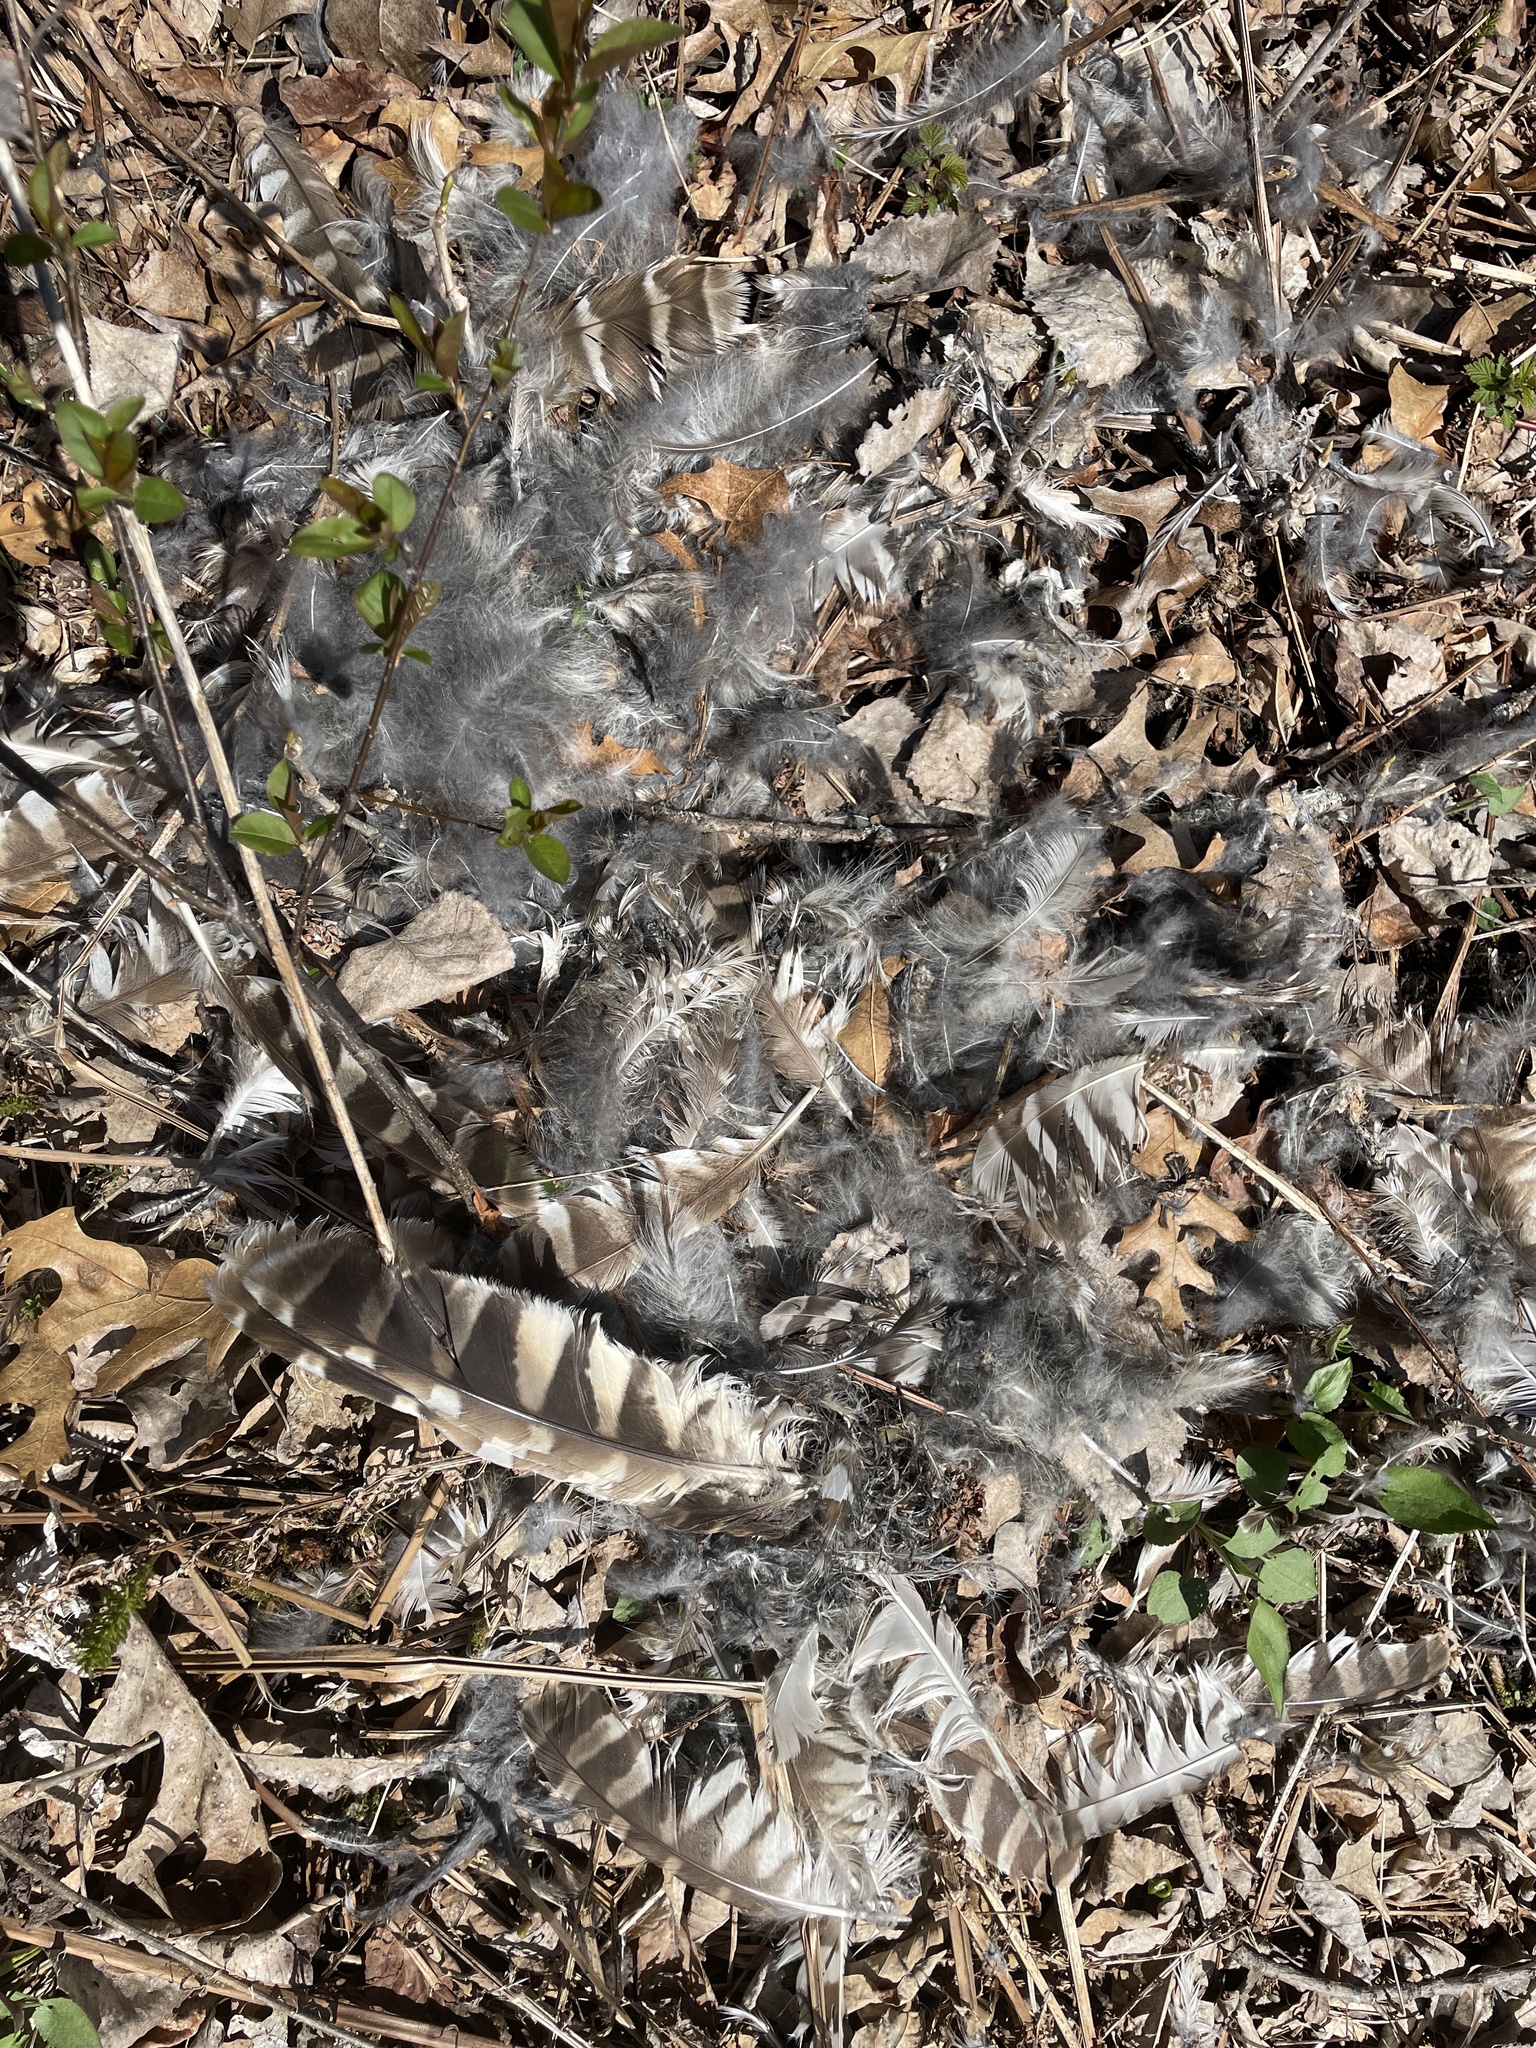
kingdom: Animalia
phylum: Chordata
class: Aves
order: Strigiformes
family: Strigidae
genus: Strix
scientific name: Strix varia
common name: Barred owl
